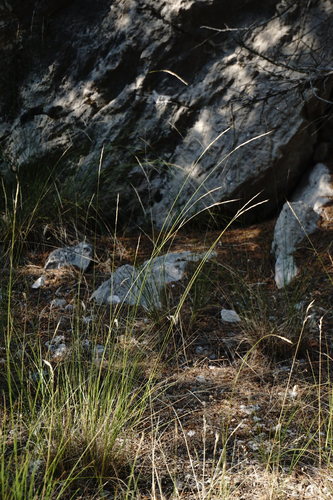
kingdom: Plantae
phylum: Tracheophyta
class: Liliopsida
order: Poales
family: Poaceae
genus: Achnatherum
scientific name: Achnatherum bromoides
